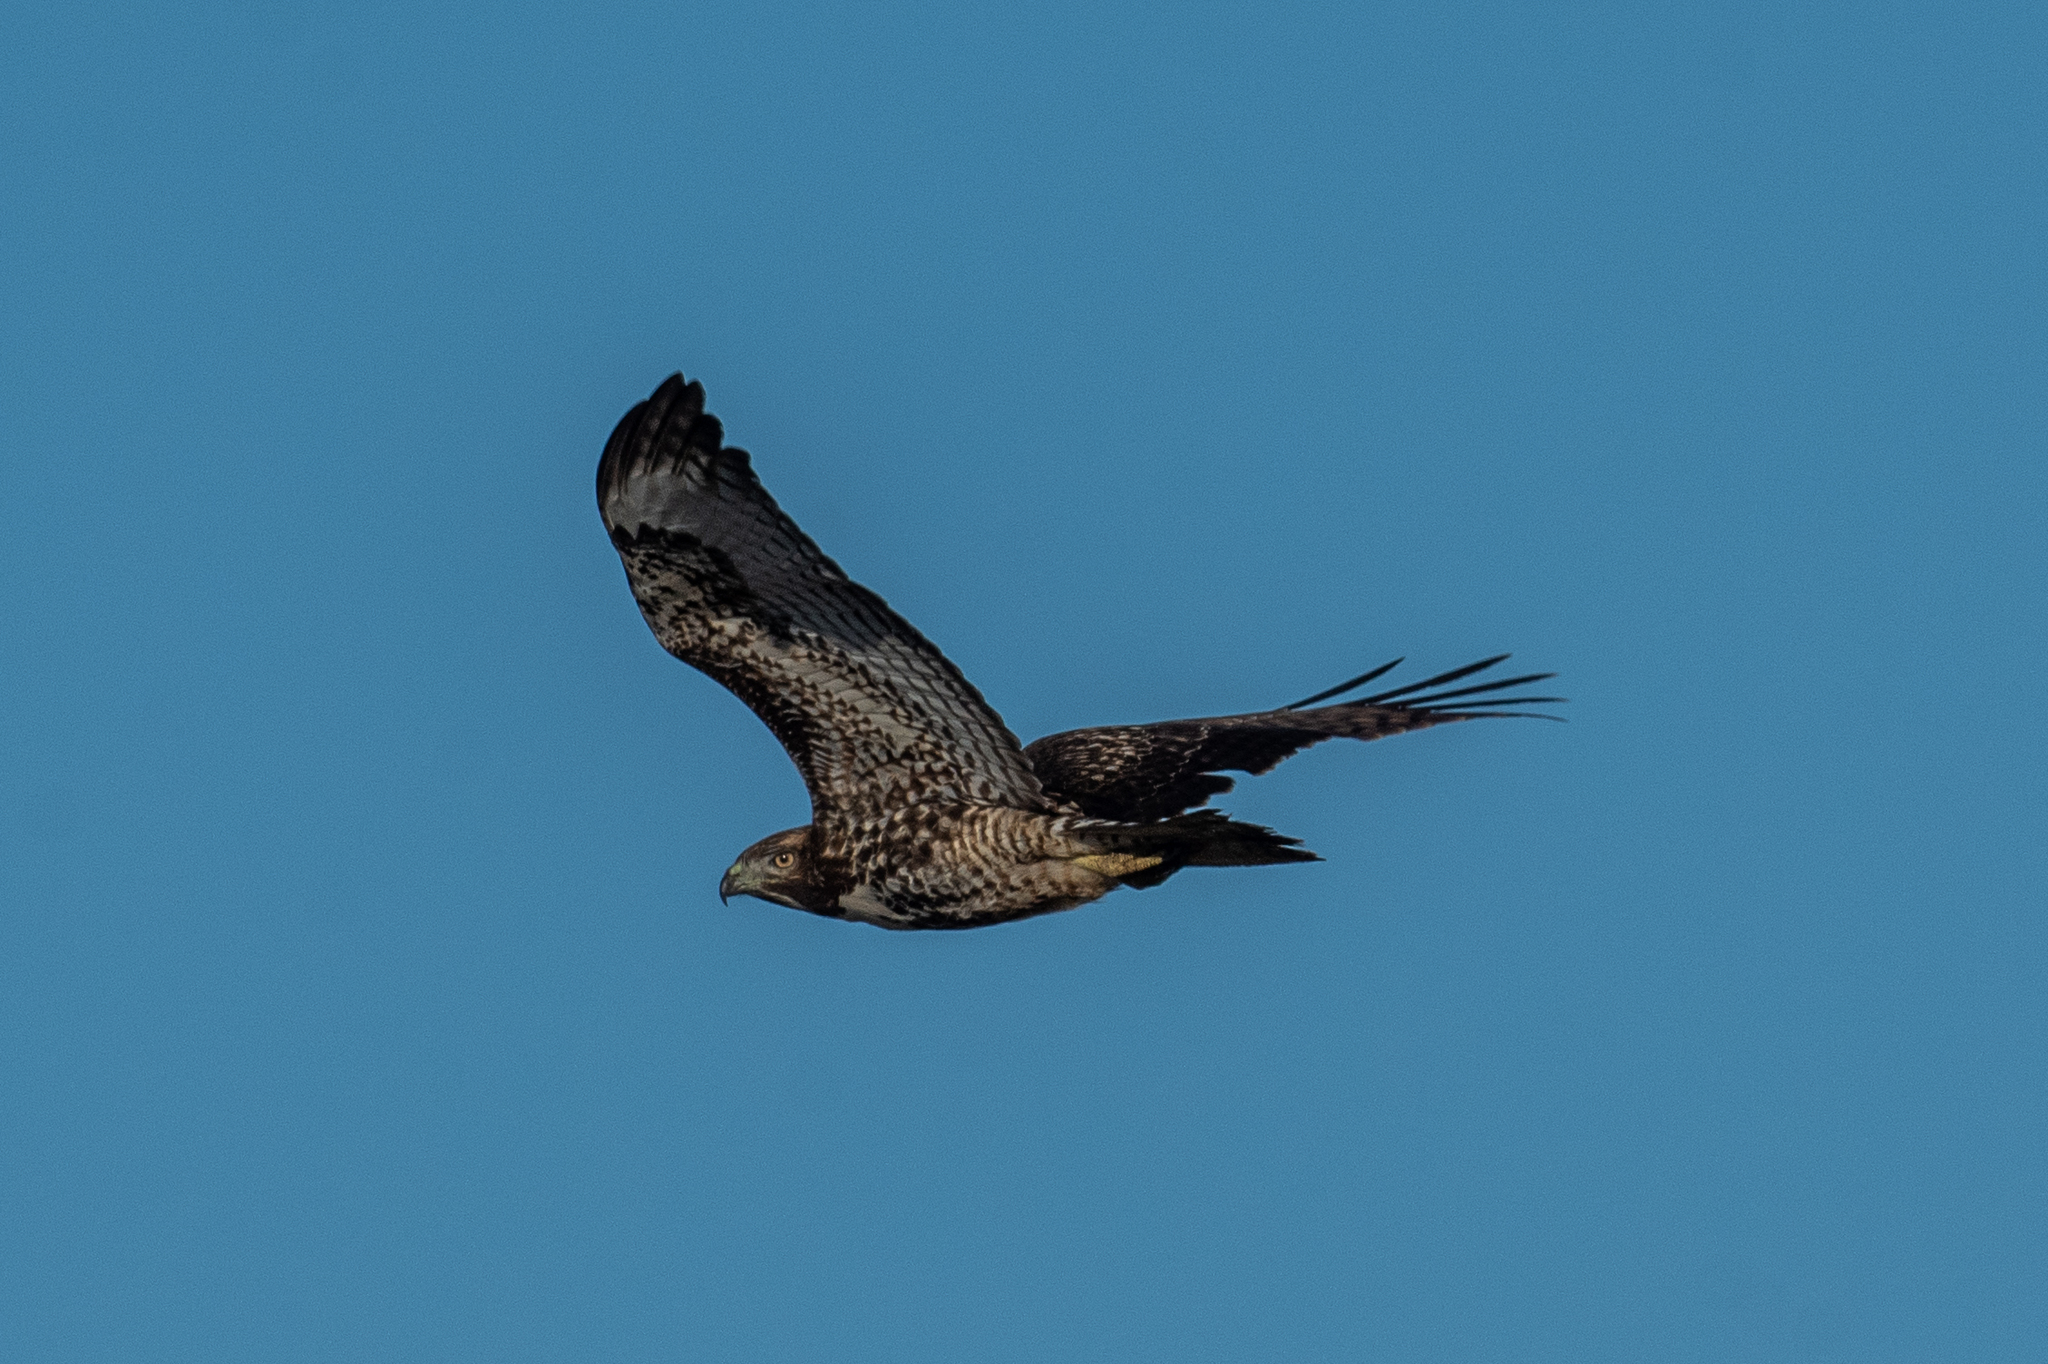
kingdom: Animalia
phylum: Chordata
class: Aves
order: Accipitriformes
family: Accipitridae
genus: Buteo
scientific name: Buteo jamaicensis
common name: Red-tailed hawk
